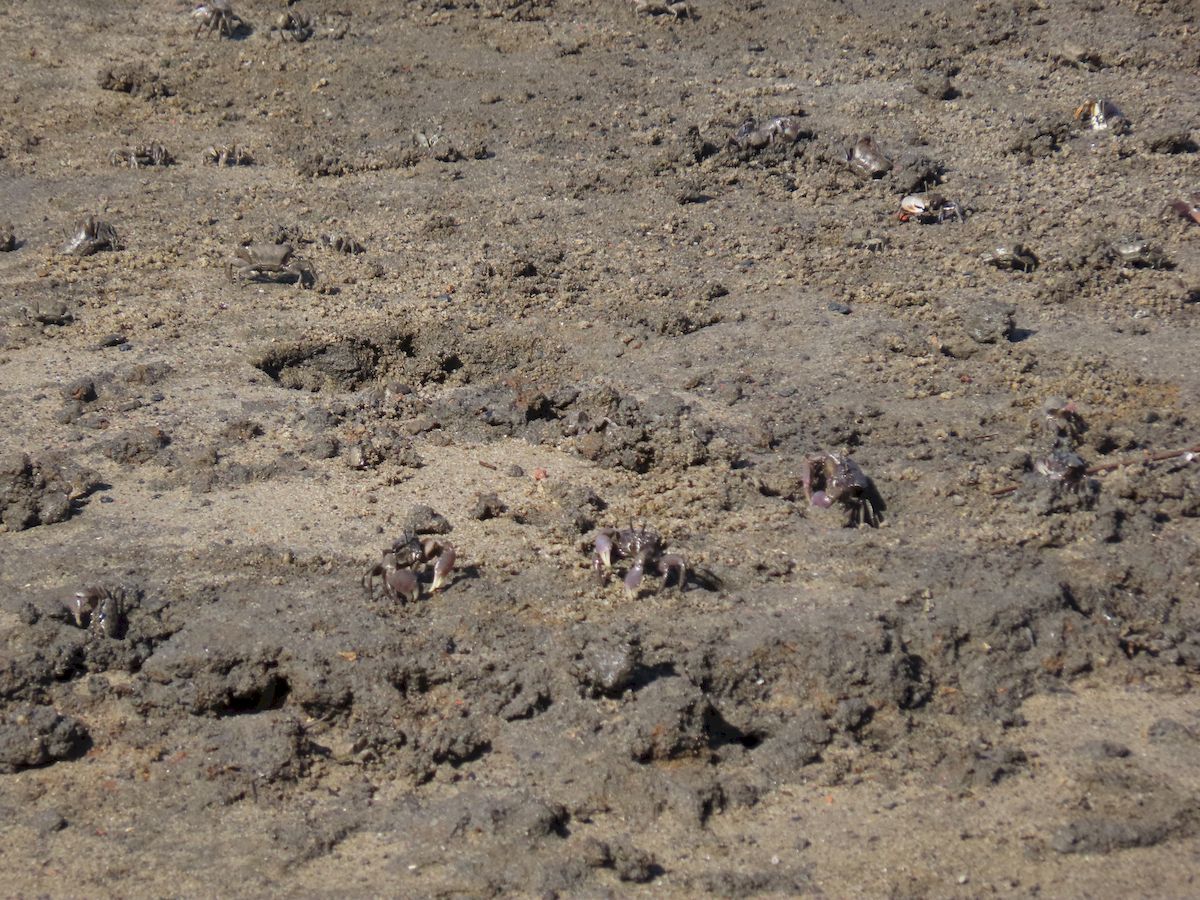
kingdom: Animalia
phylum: Arthropoda
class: Malacostraca
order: Decapoda
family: Heloeciidae
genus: Heloecius
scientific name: Heloecius cordiformis
